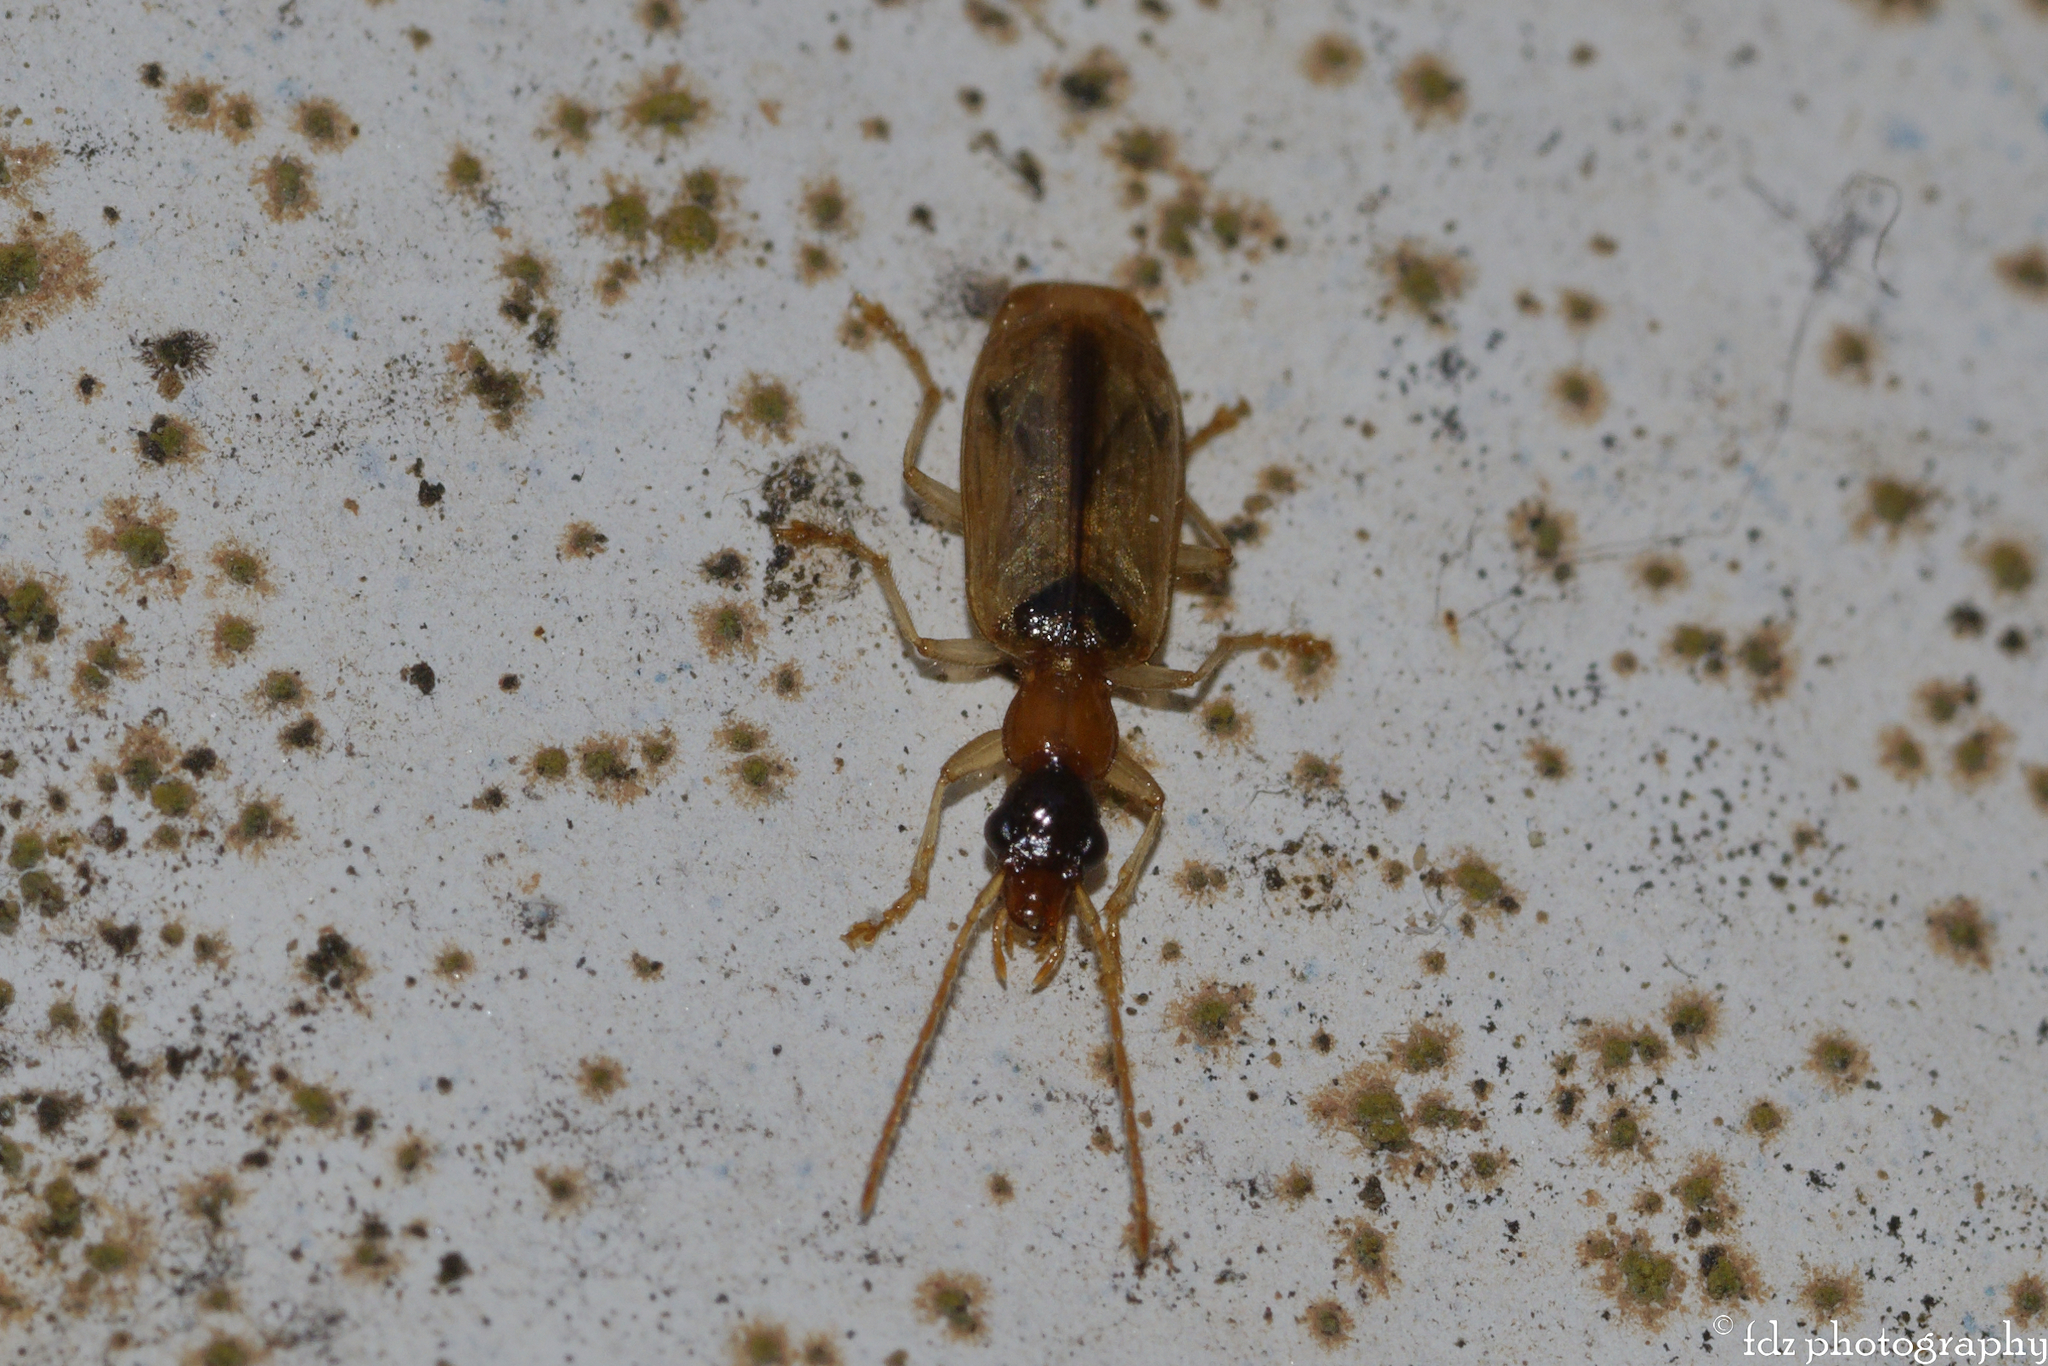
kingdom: Animalia
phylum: Arthropoda
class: Insecta
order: Coleoptera
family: Carabidae
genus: Demetrias
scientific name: Demetrias atricapillus
